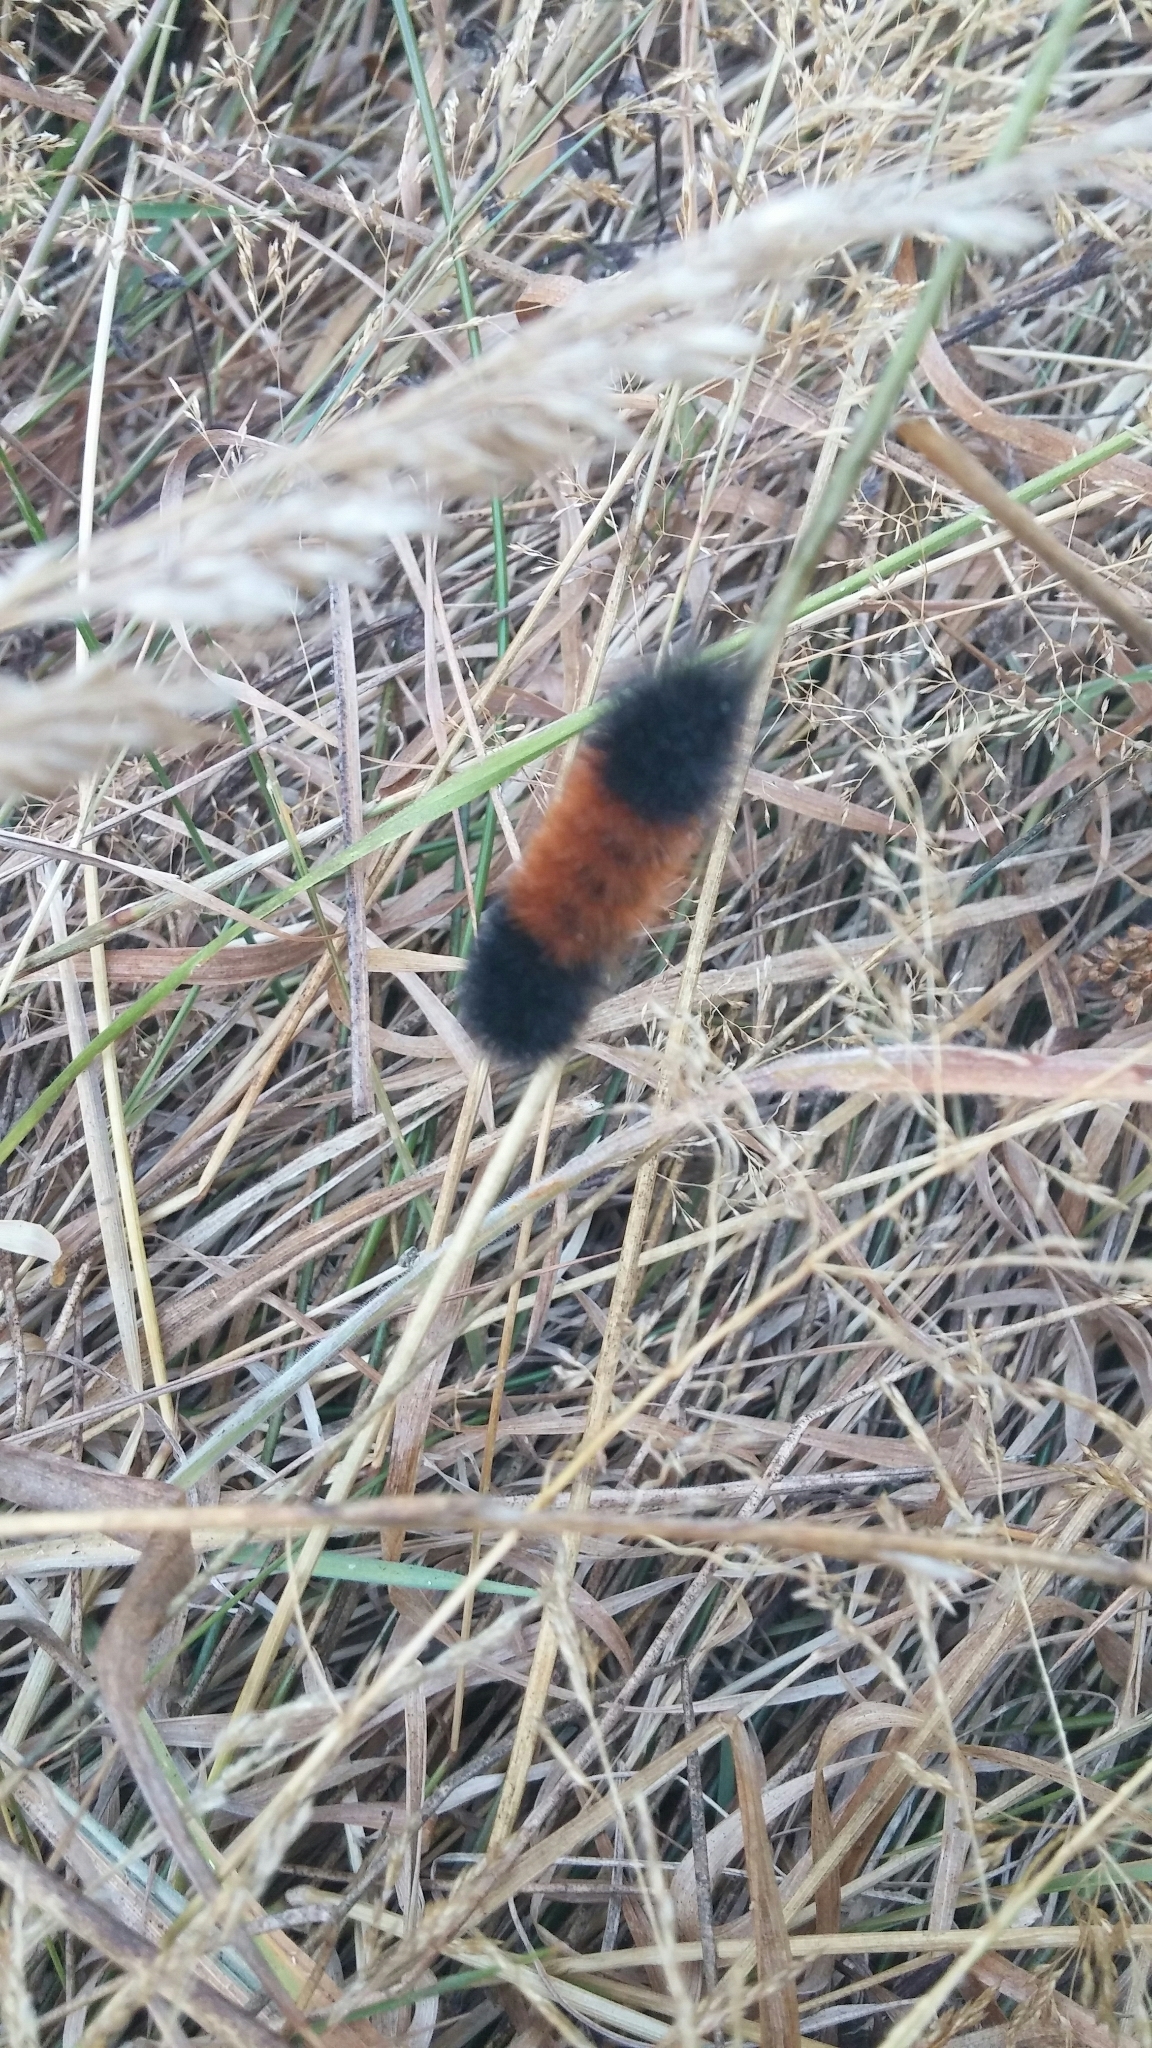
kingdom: Animalia
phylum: Arthropoda
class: Insecta
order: Lepidoptera
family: Erebidae
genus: Pyrrharctia
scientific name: Pyrrharctia isabella
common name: Isabella tiger moth
